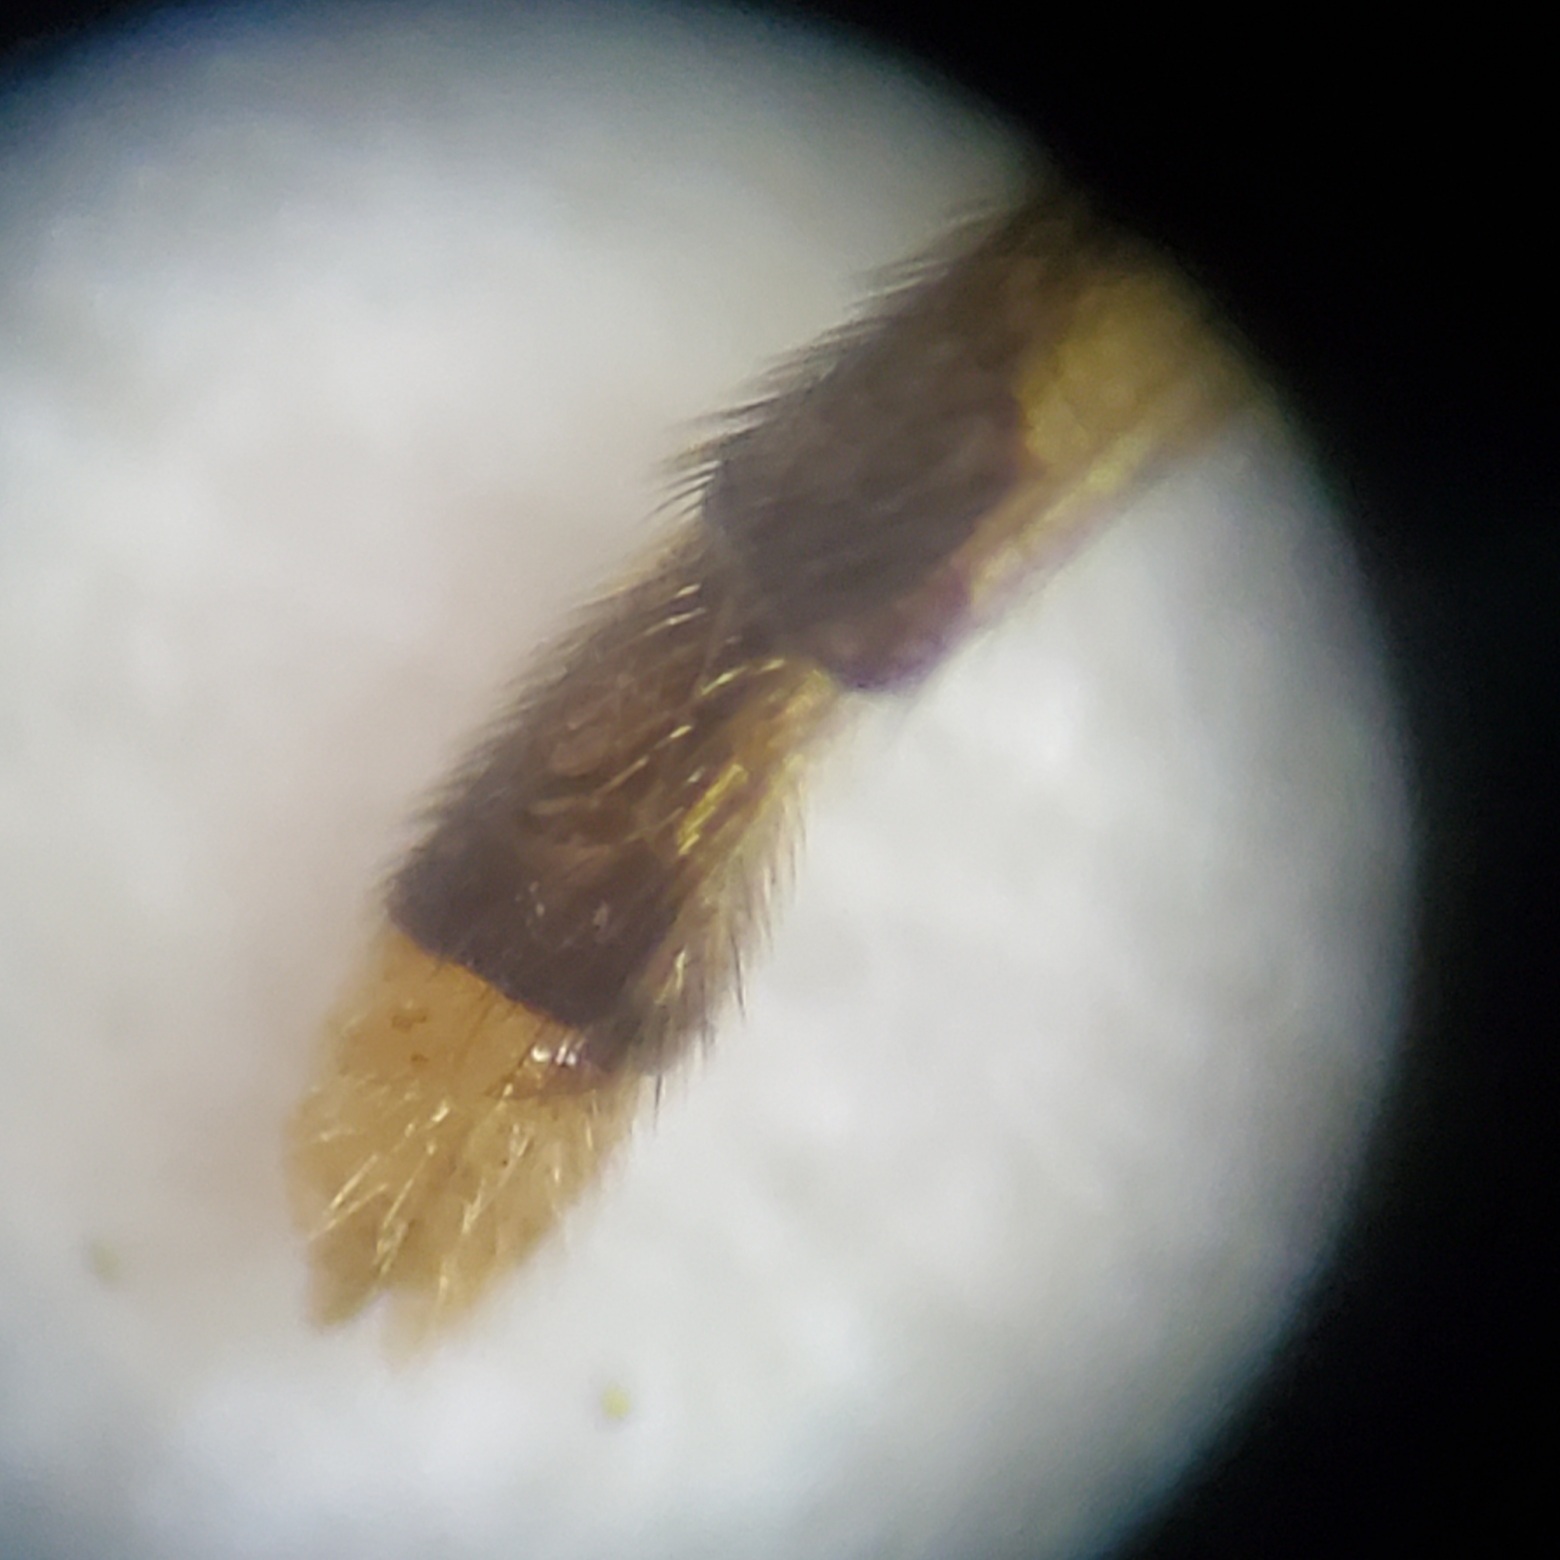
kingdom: Animalia
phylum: Arthropoda
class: Insecta
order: Diptera
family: Mycetophilidae
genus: Leptomorphus
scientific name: Leptomorphus hyalinus
